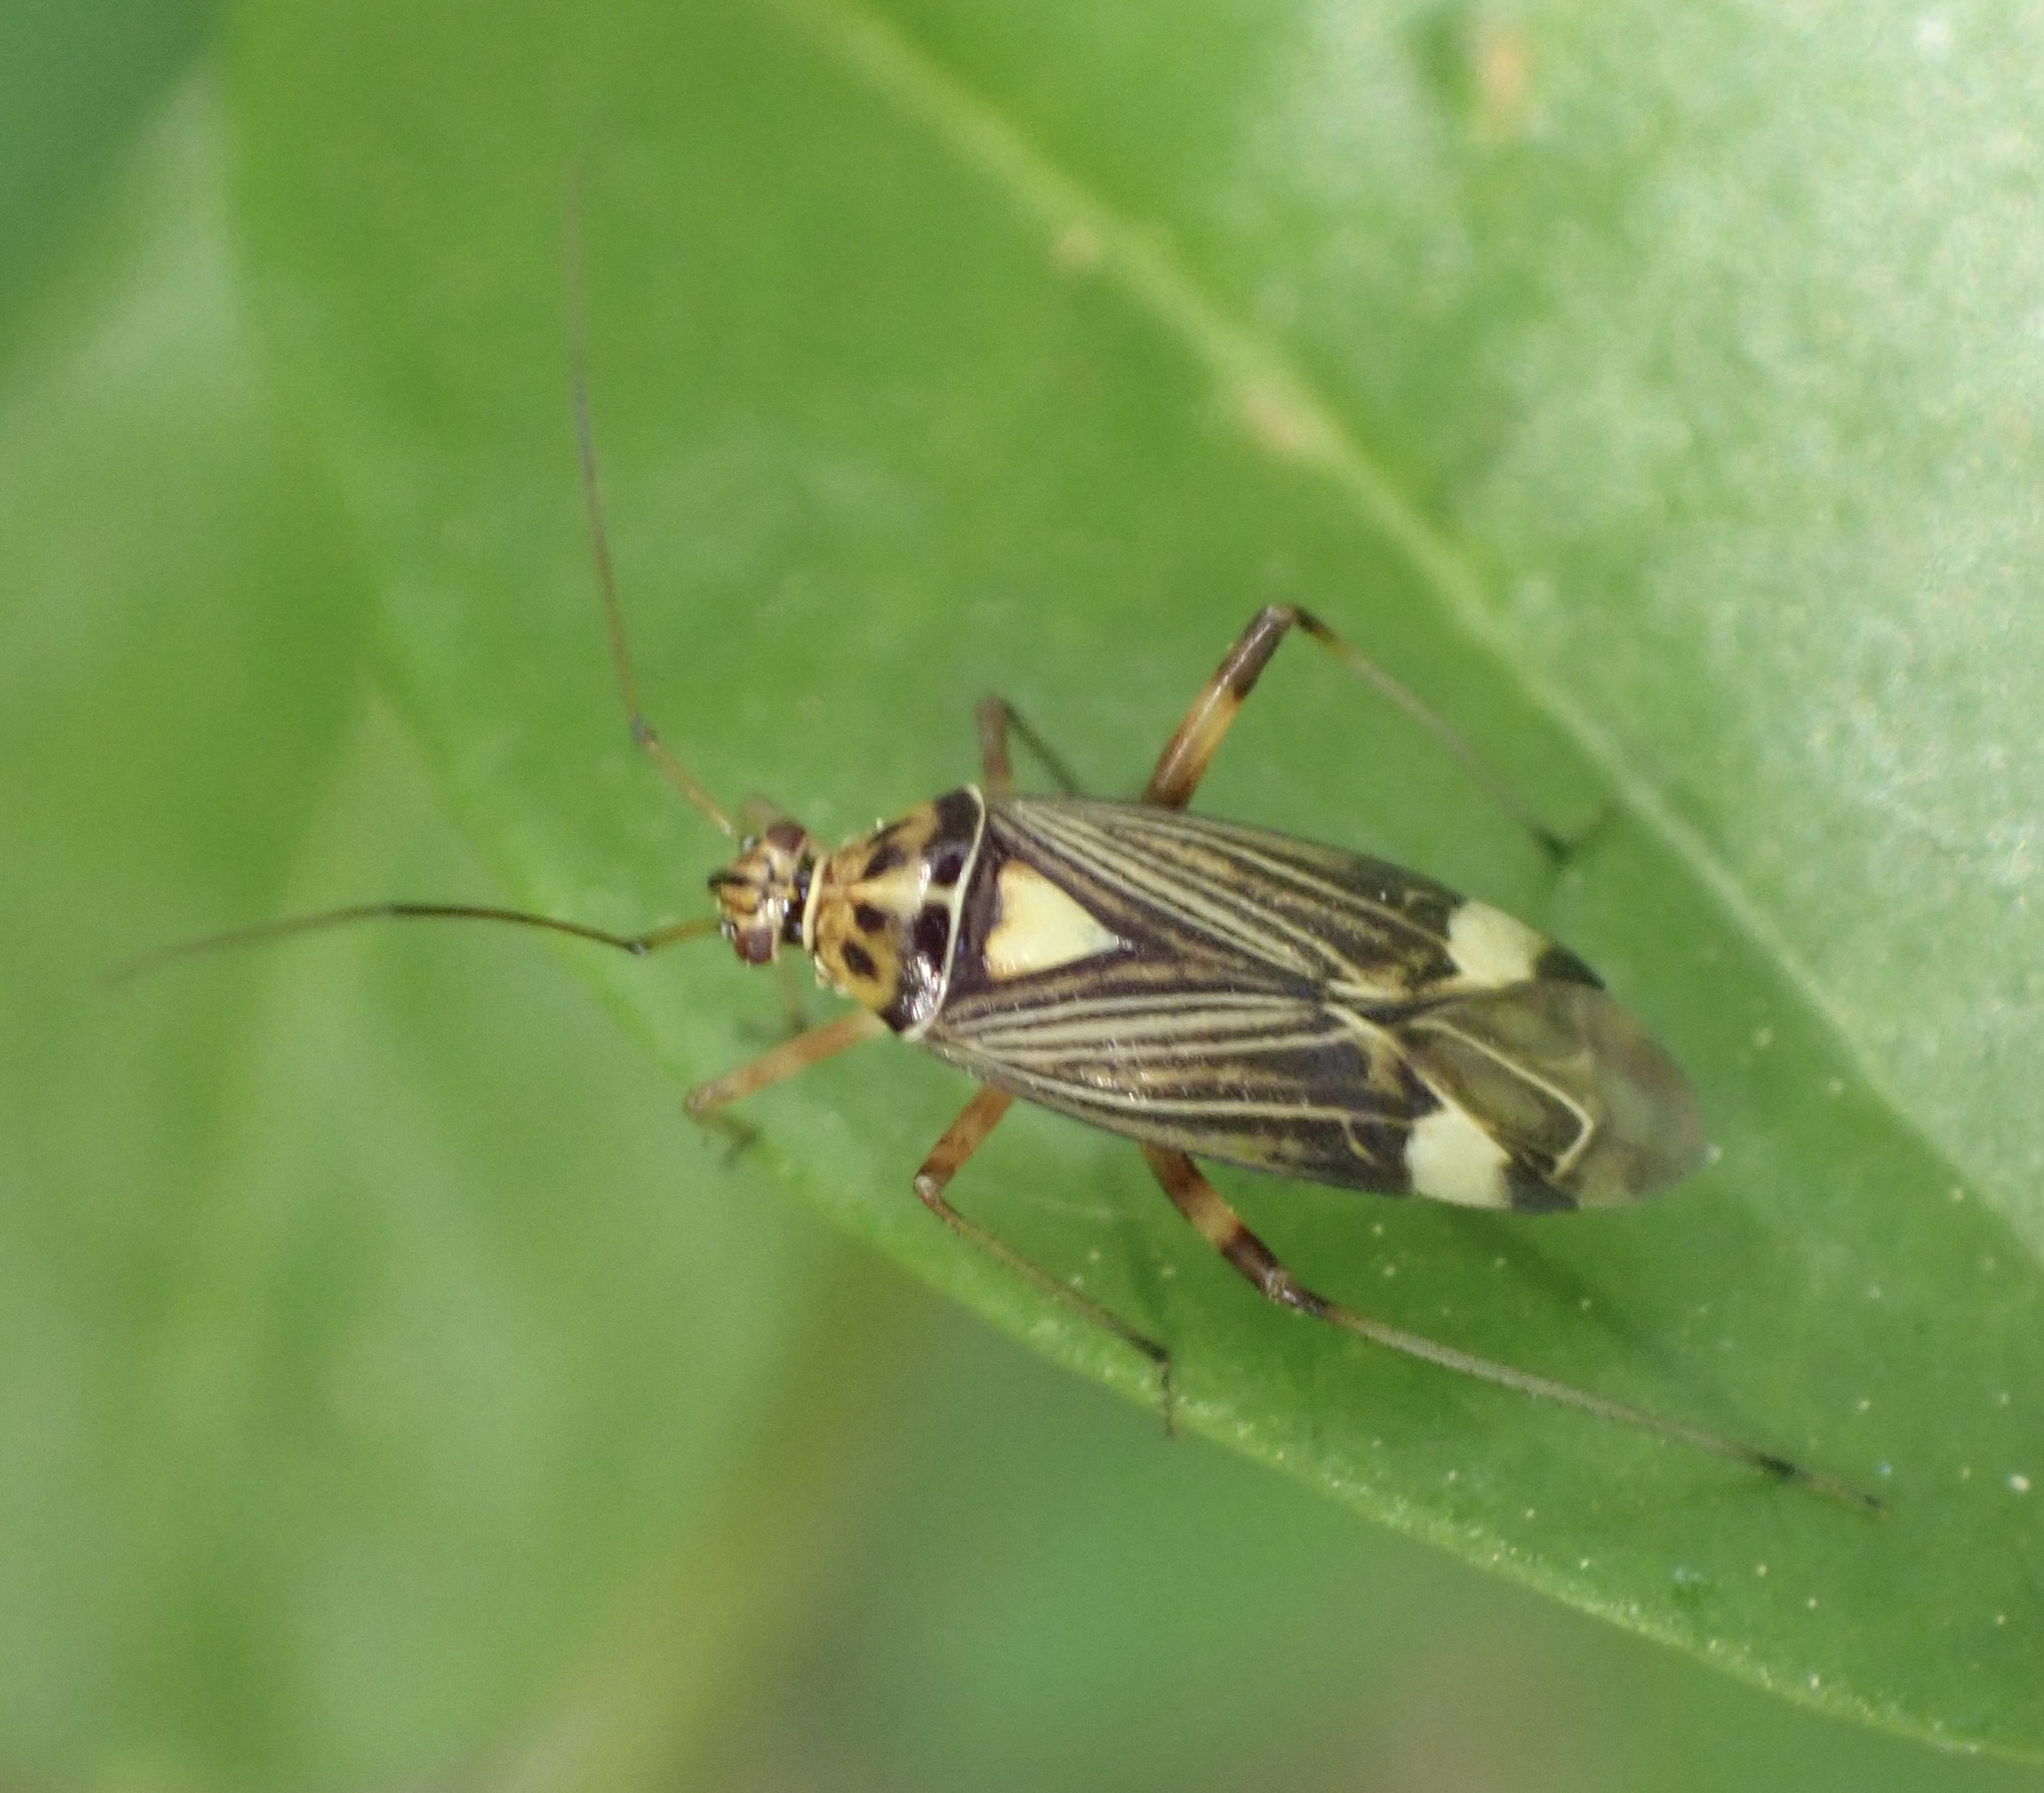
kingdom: Animalia
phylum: Arthropoda
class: Insecta
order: Hemiptera
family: Miridae
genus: Rhabdomiris
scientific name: Rhabdomiris striatellus
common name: Plant bug
